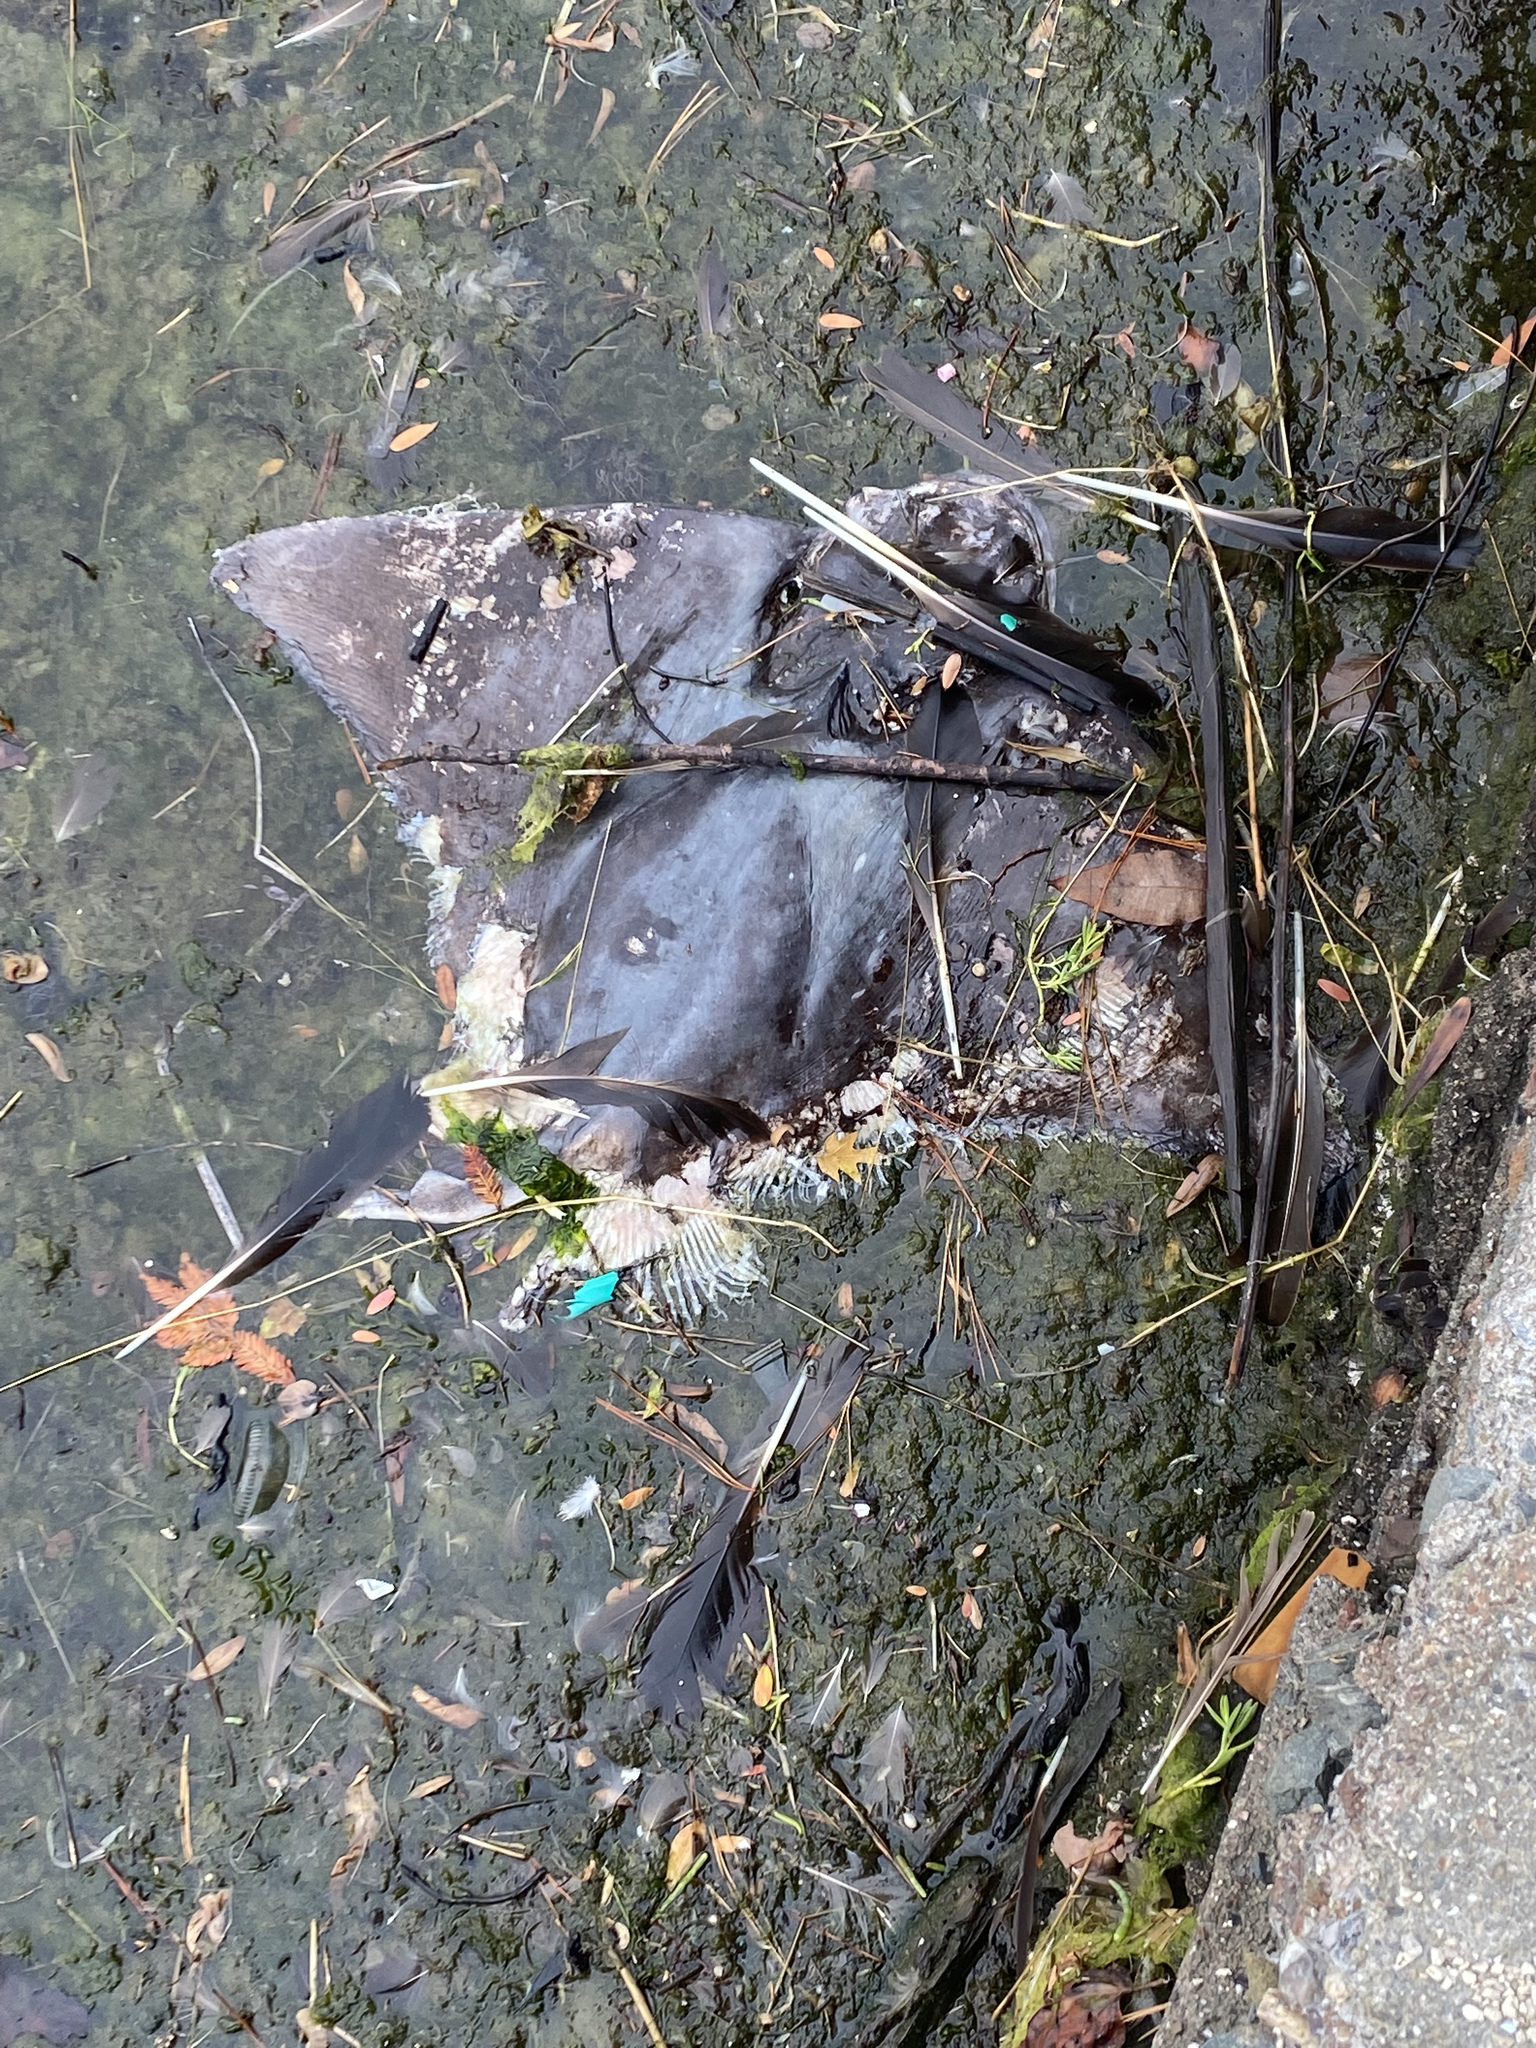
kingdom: Animalia
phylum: Chordata
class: Elasmobranchii
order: Myliobatiformes
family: Myliobatidae
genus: Myliobatis
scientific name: Myliobatis californica
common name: Bat ray
